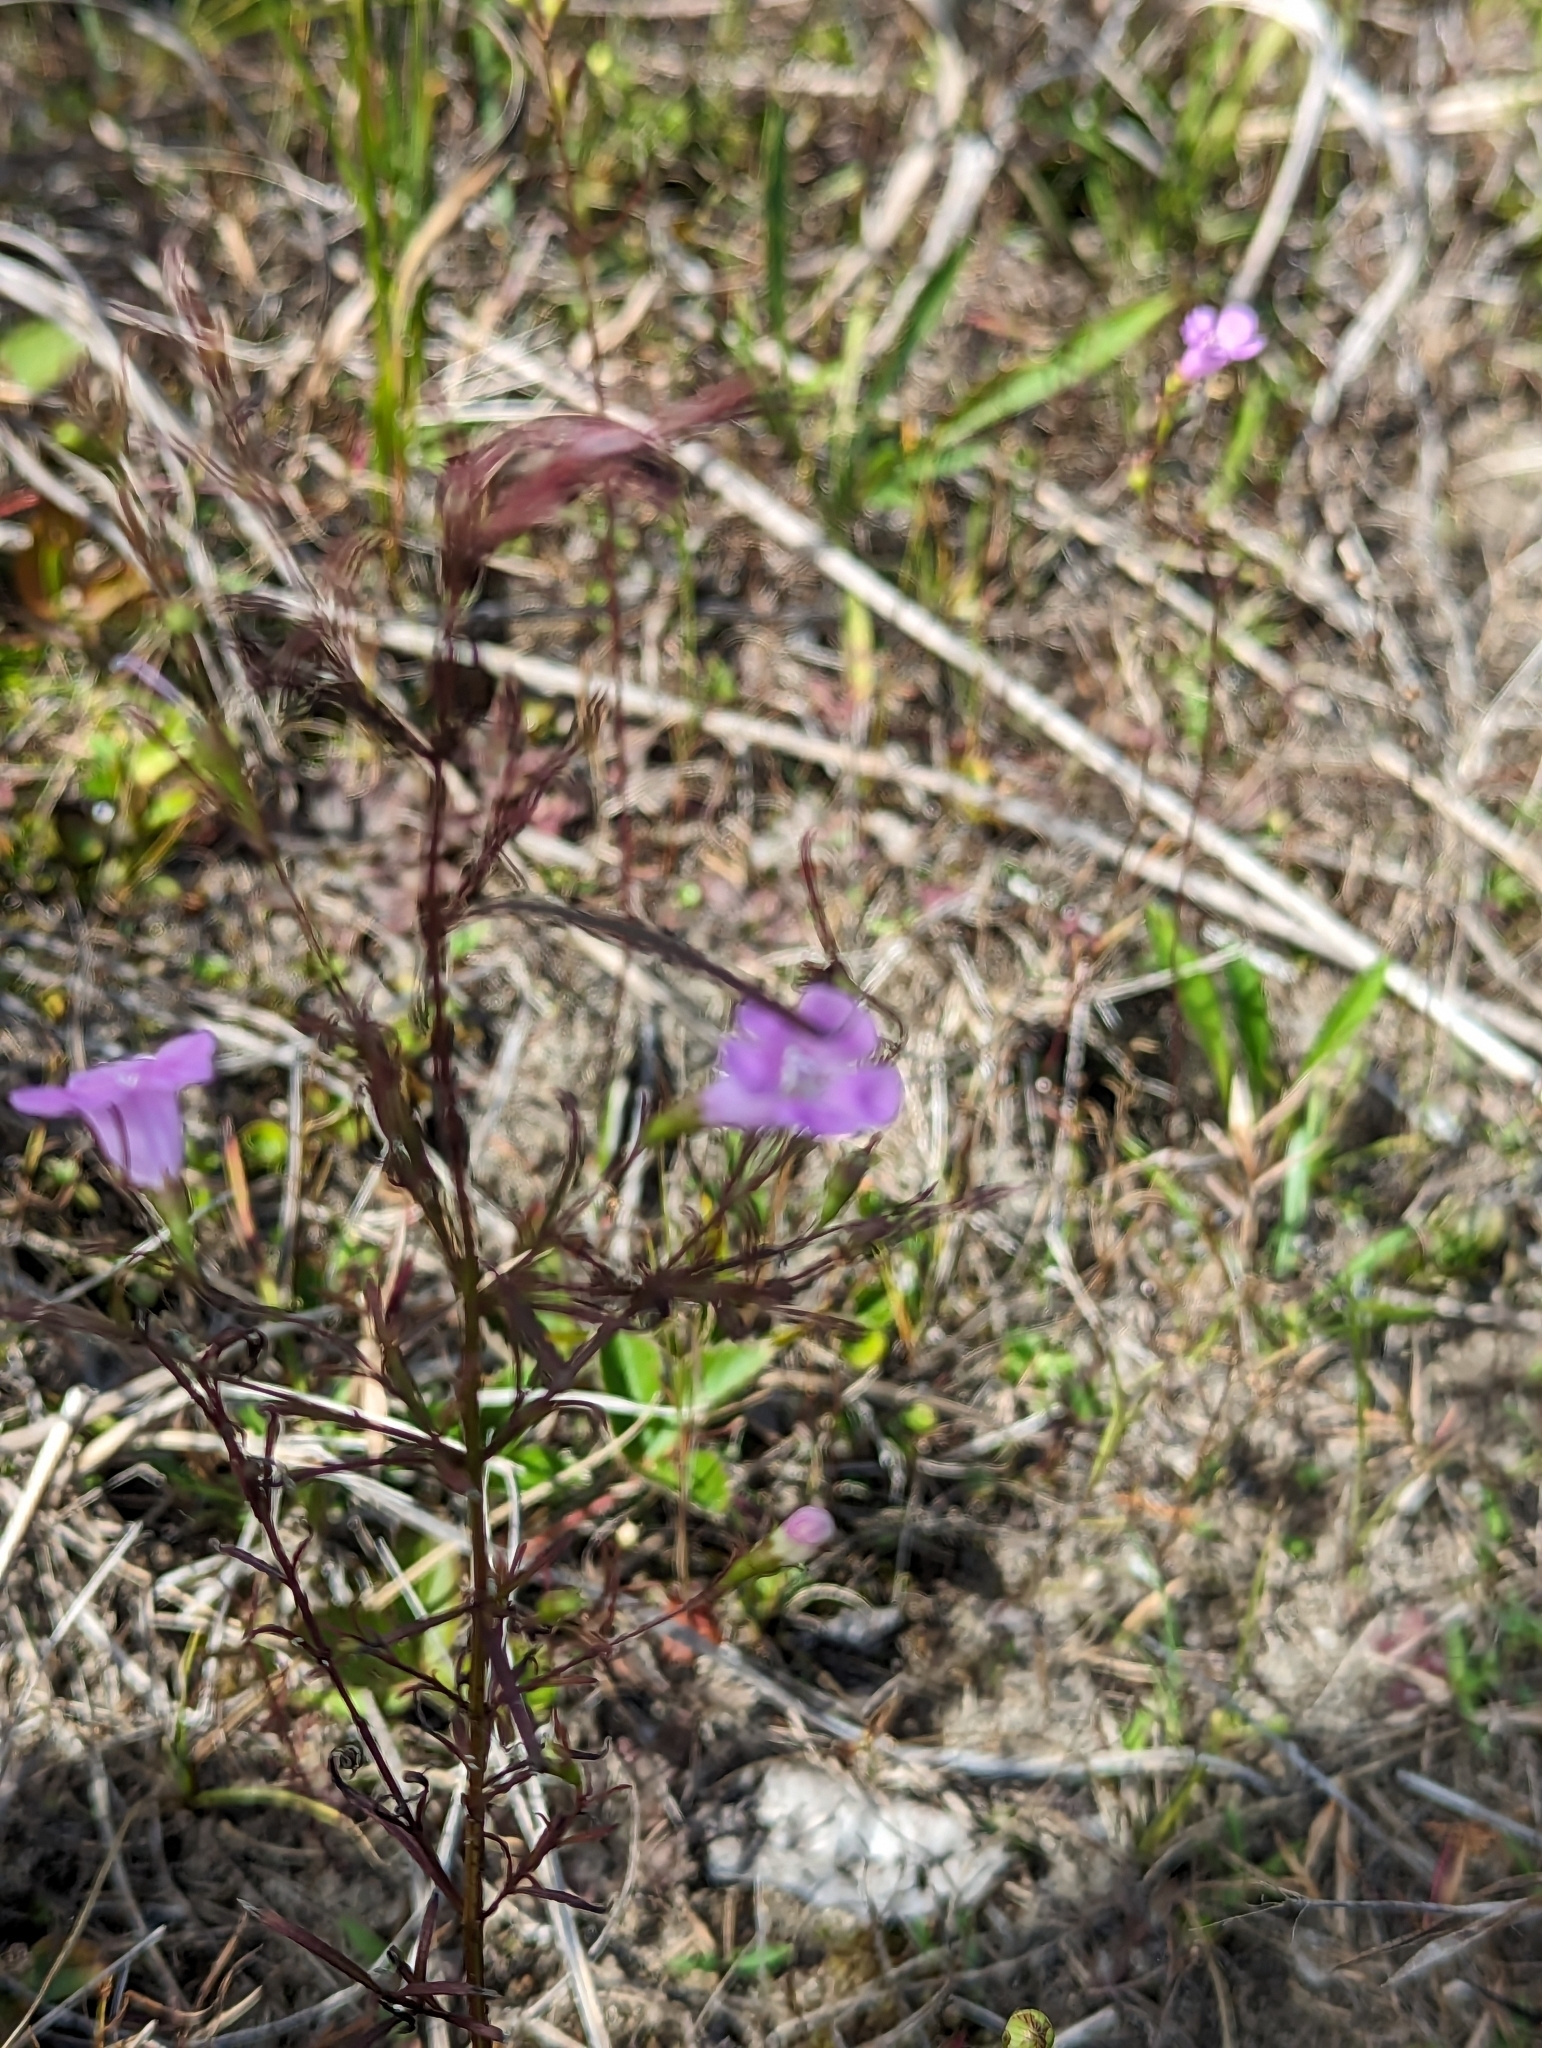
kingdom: Plantae
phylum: Tracheophyta
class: Magnoliopsida
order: Lamiales
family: Orobanchaceae
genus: Agalinis
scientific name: Agalinis purpurea
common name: Purple false foxglove
